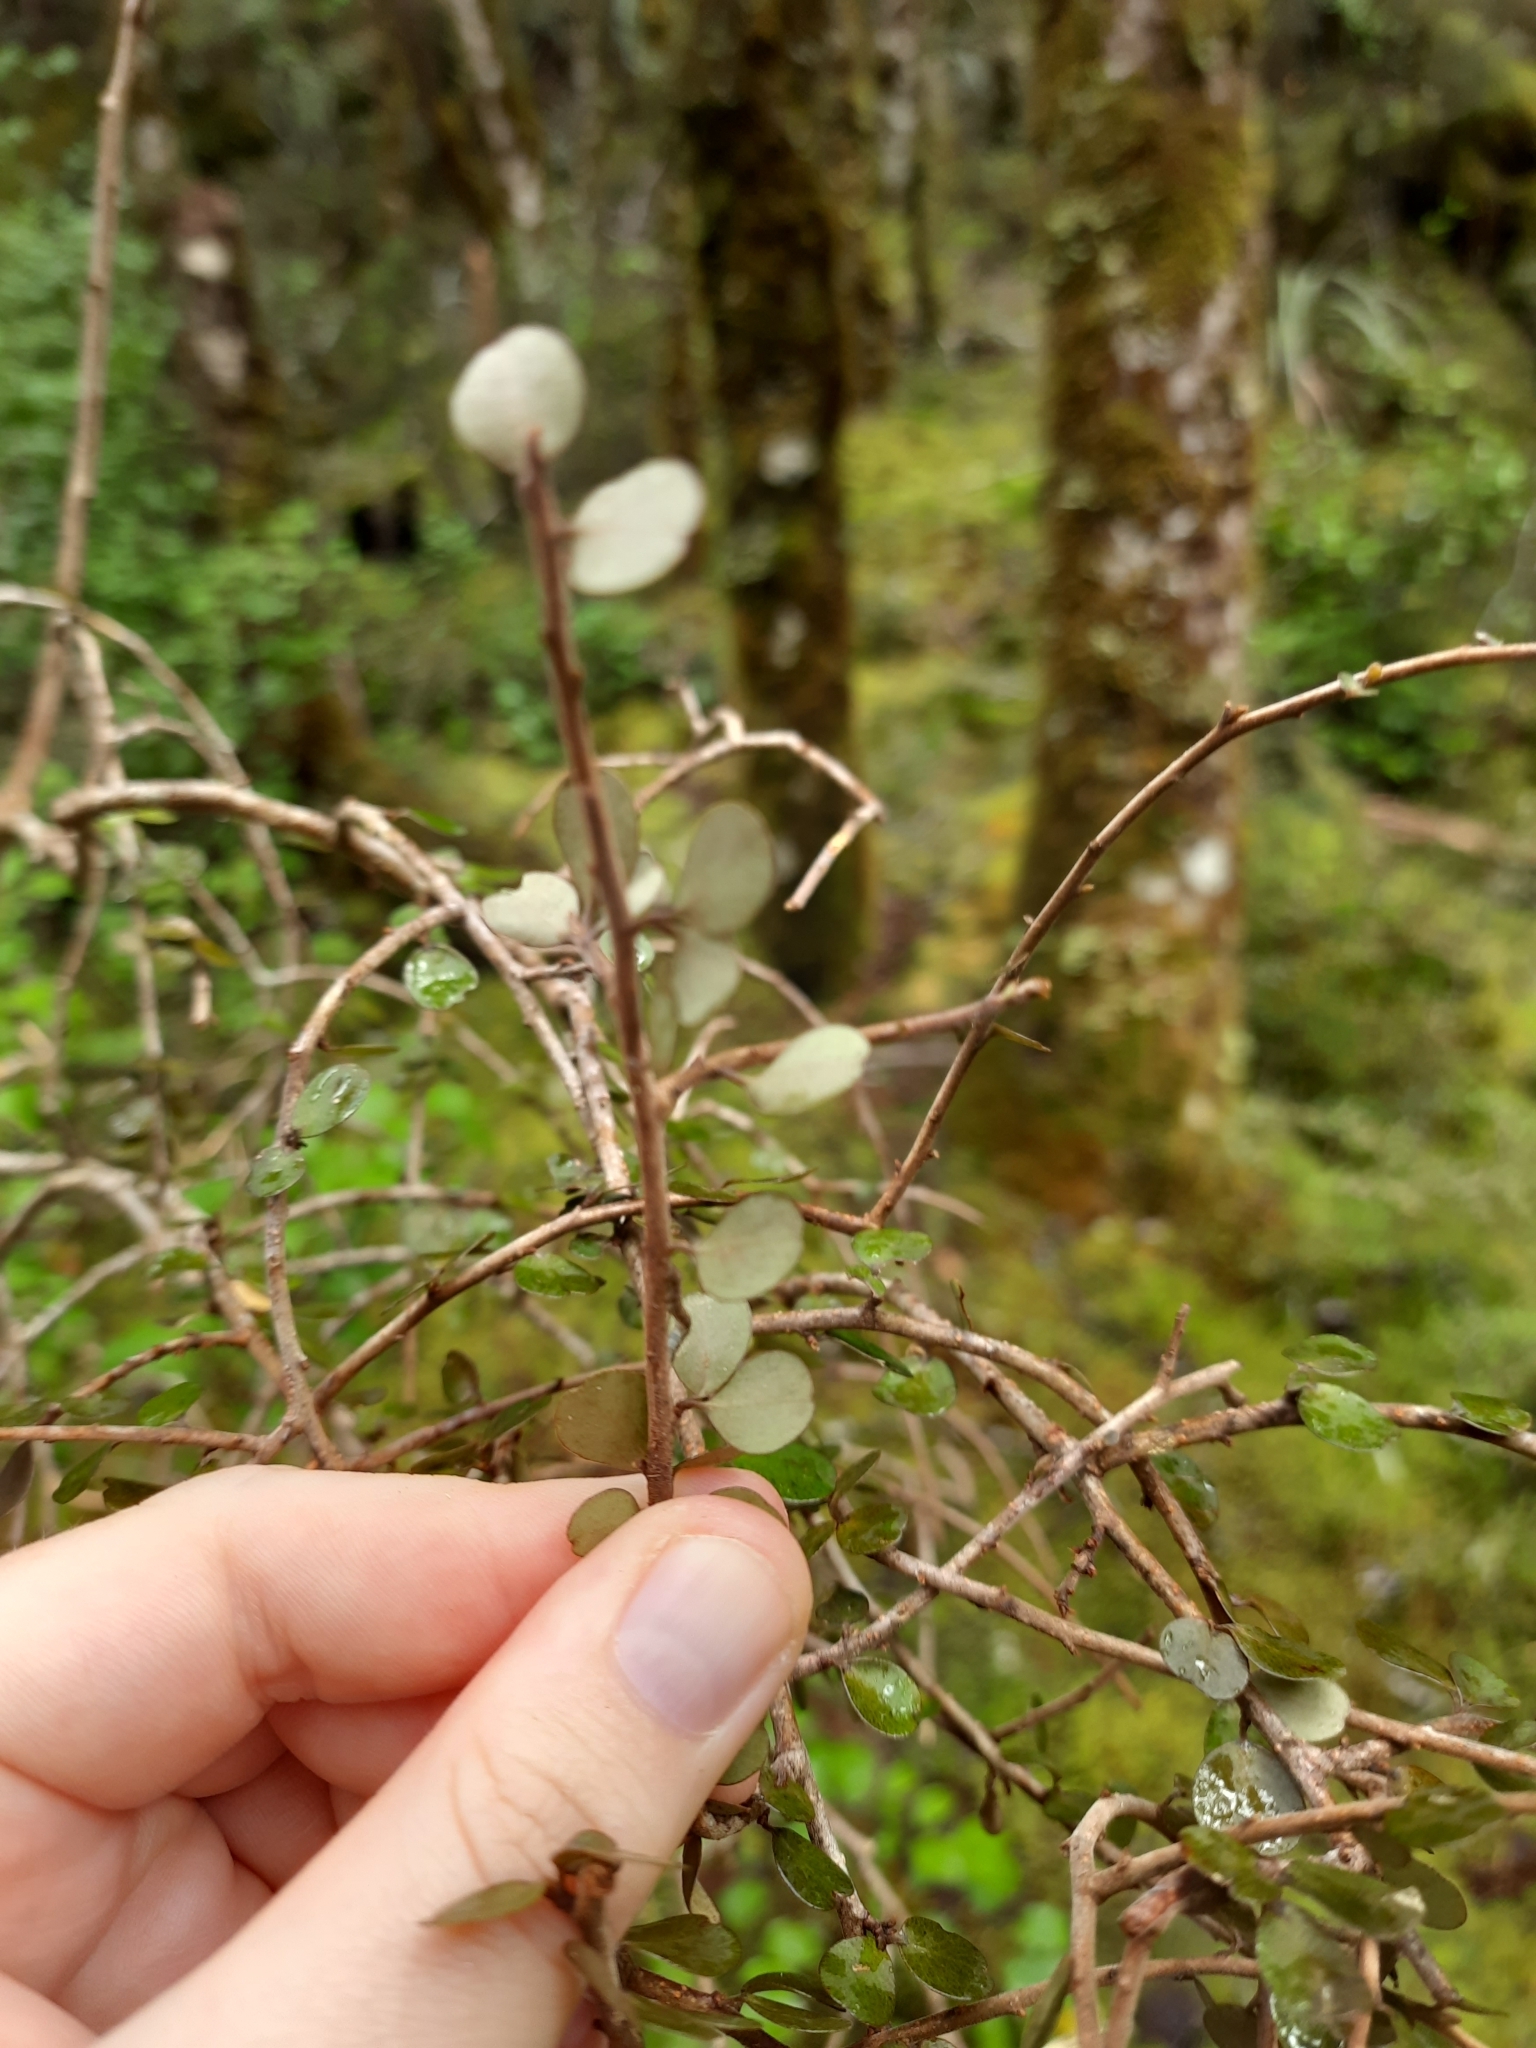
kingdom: Plantae
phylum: Tracheophyta
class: Magnoliopsida
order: Ericales
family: Primulaceae
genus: Myrsine
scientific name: Myrsine divaricata
